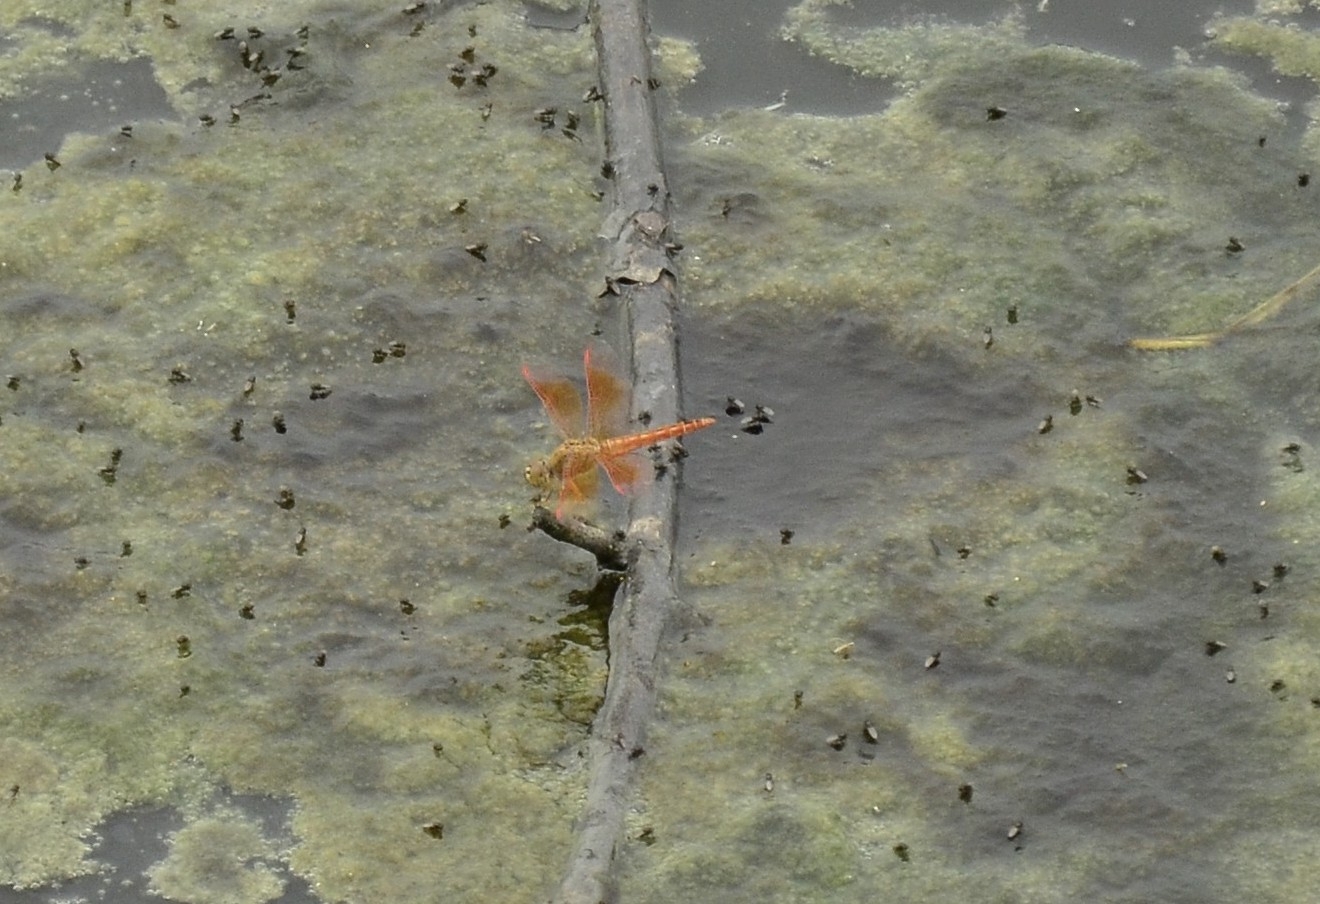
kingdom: Animalia
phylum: Arthropoda
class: Insecta
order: Odonata
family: Libellulidae
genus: Brachythemis
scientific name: Brachythemis contaminata
